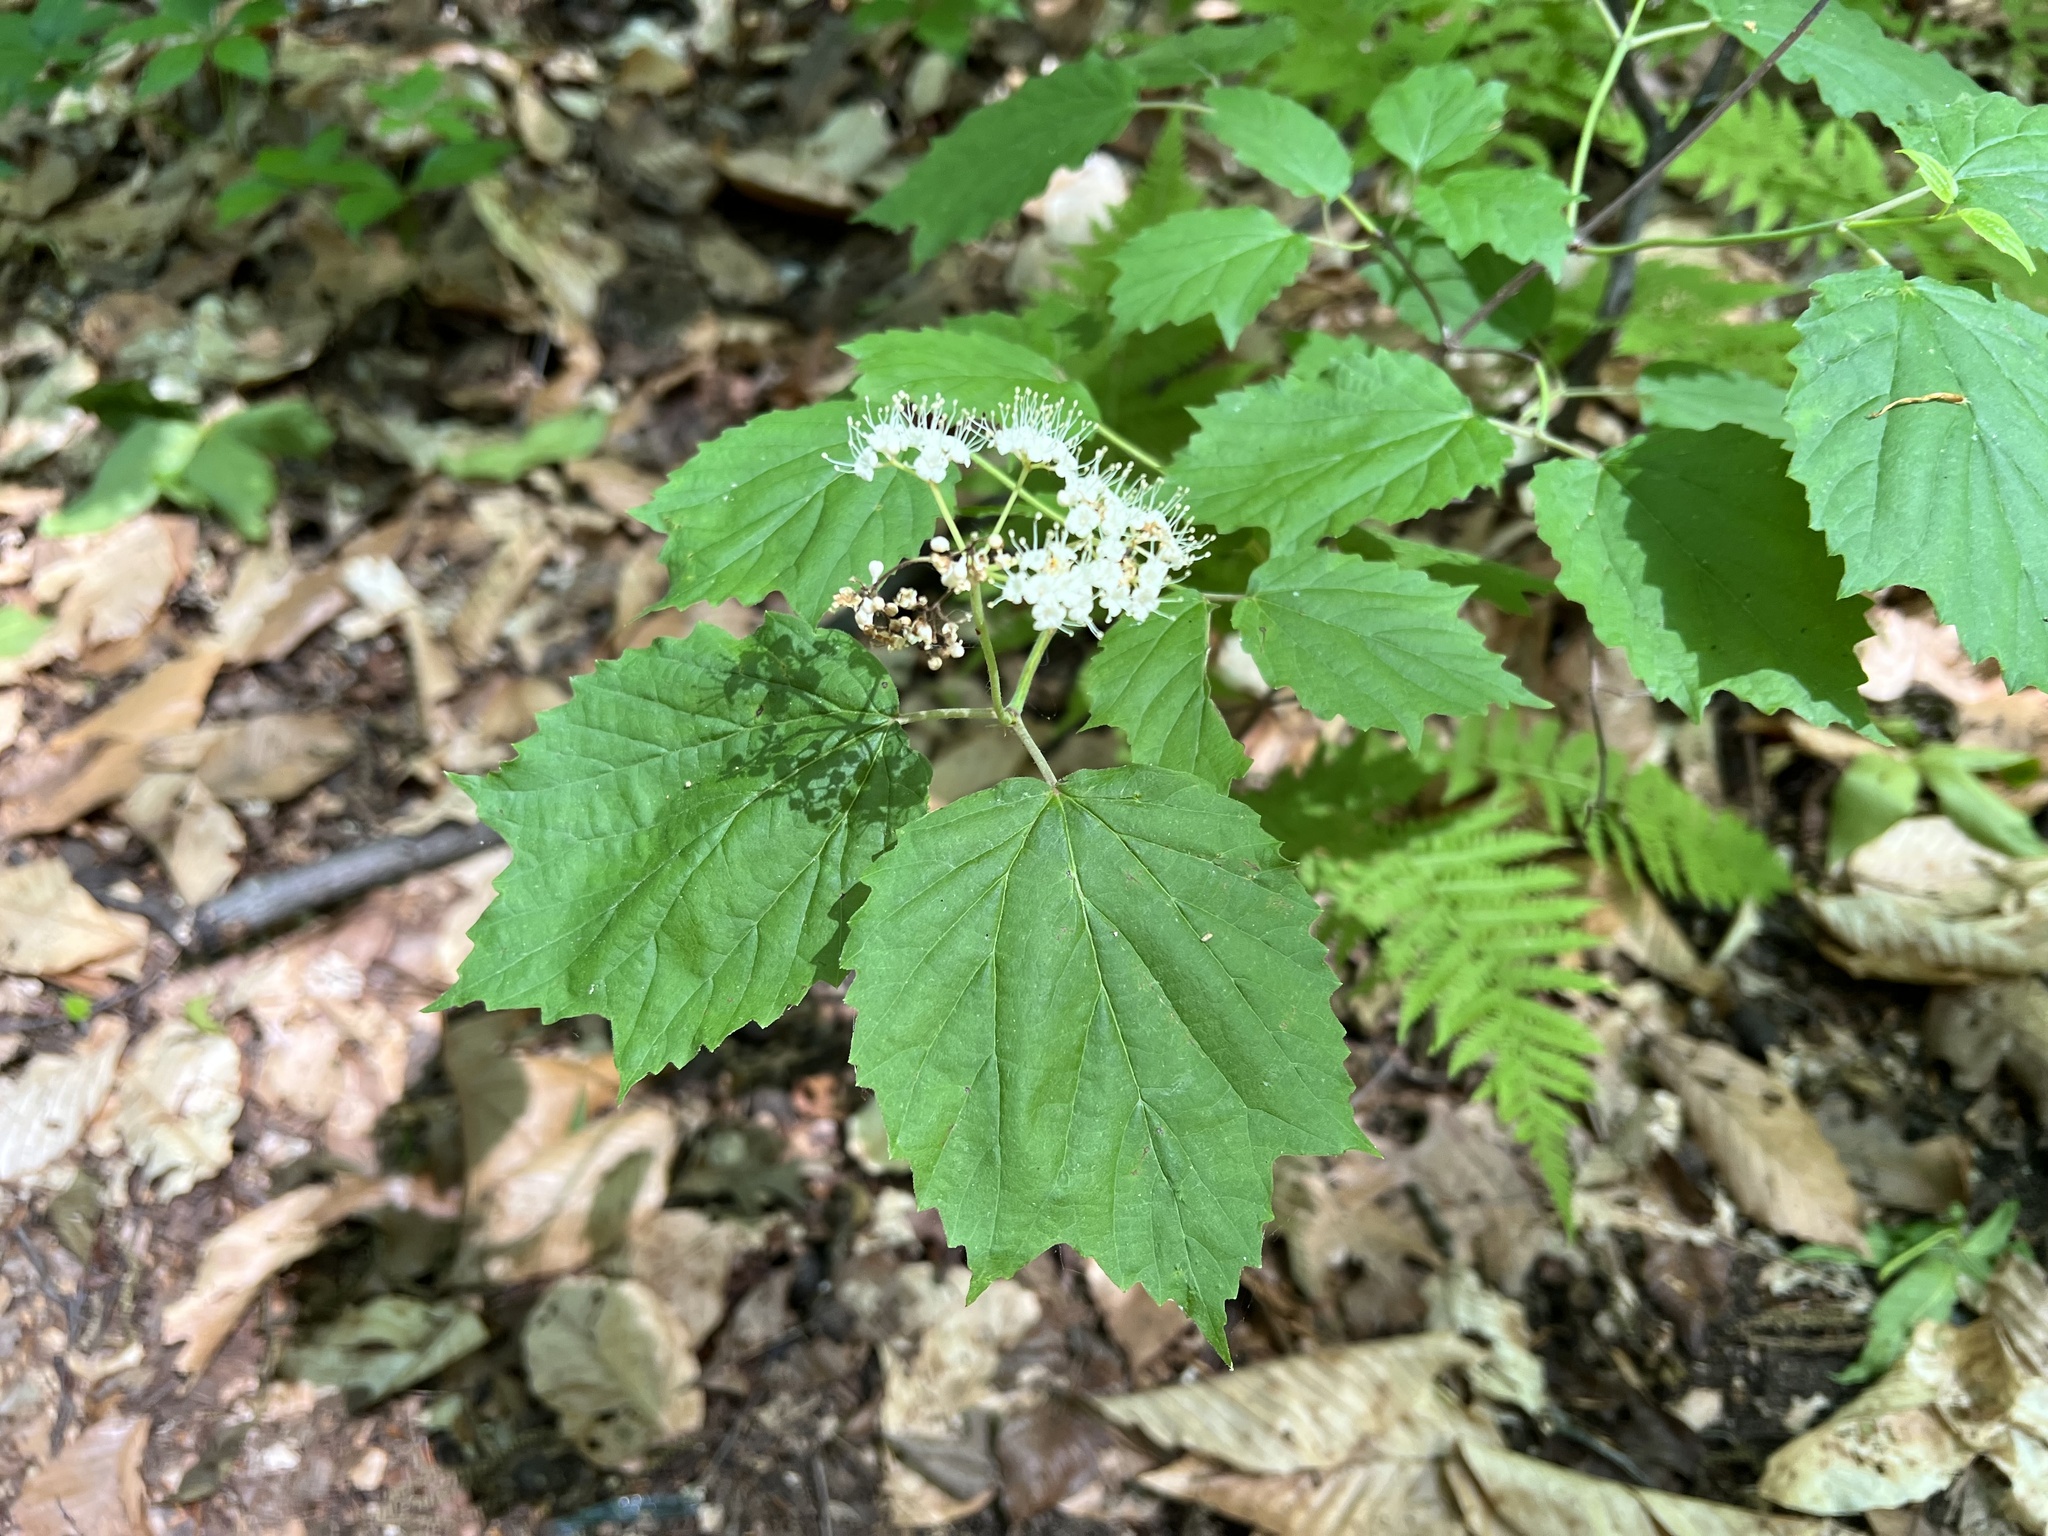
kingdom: Plantae
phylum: Tracheophyta
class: Magnoliopsida
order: Dipsacales
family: Viburnaceae
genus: Viburnum
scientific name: Viburnum acerifolium
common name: Dockmackie
